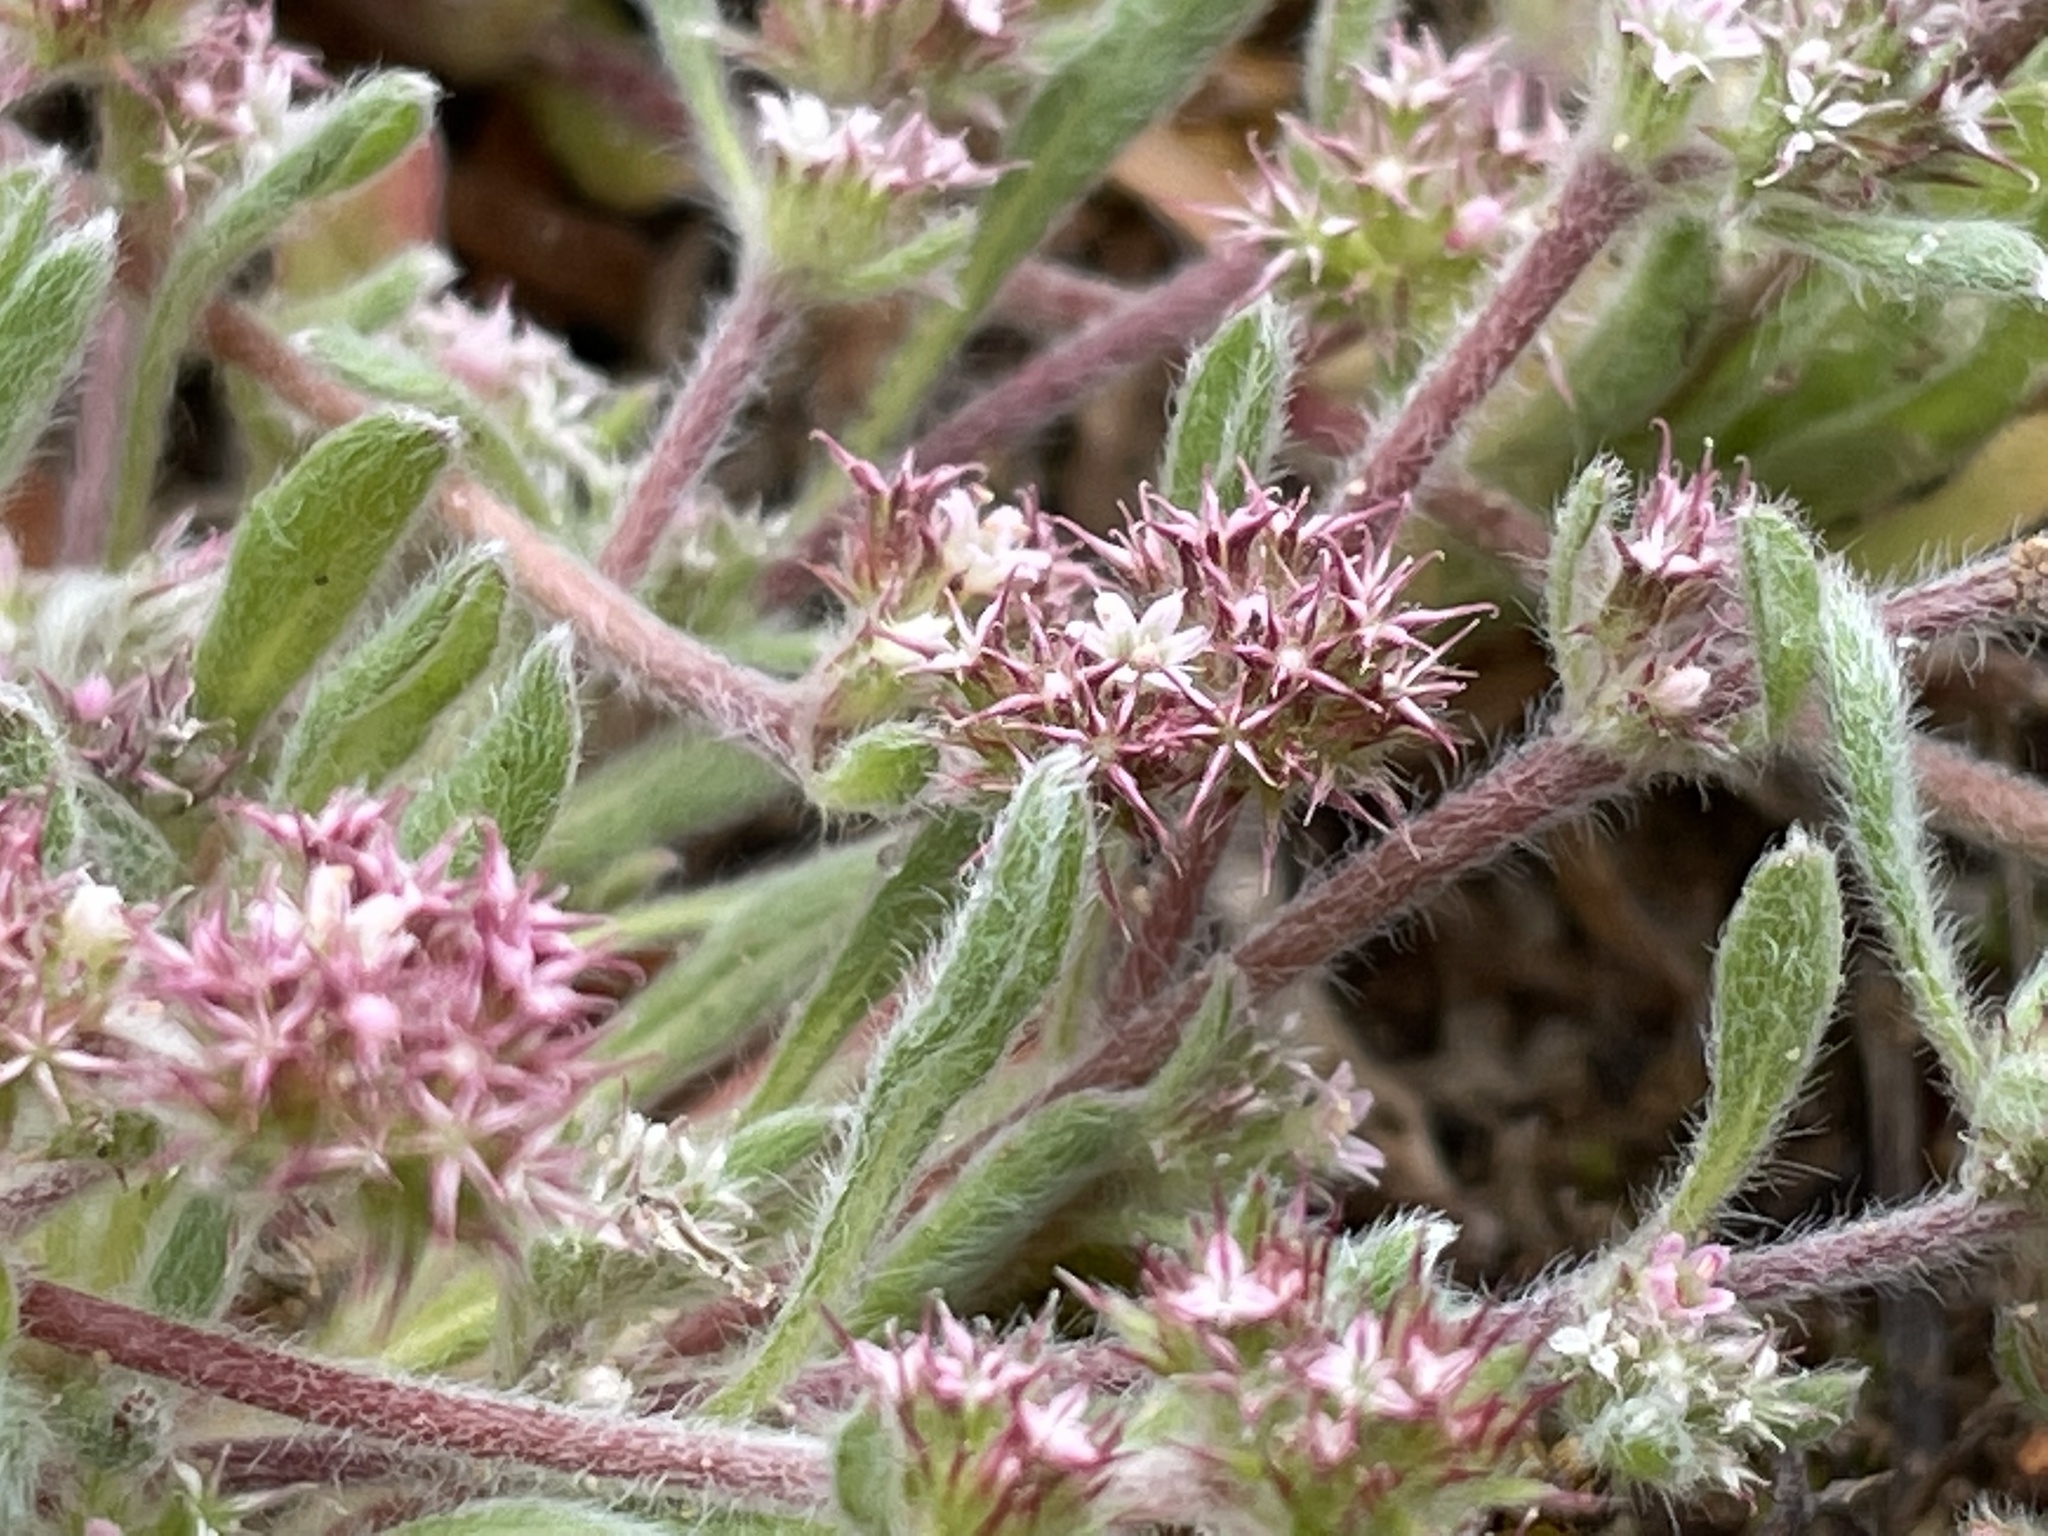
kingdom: Plantae
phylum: Tracheophyta
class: Magnoliopsida
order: Caryophyllales
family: Polygonaceae
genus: Chorizanthe
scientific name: Chorizanthe pungens
